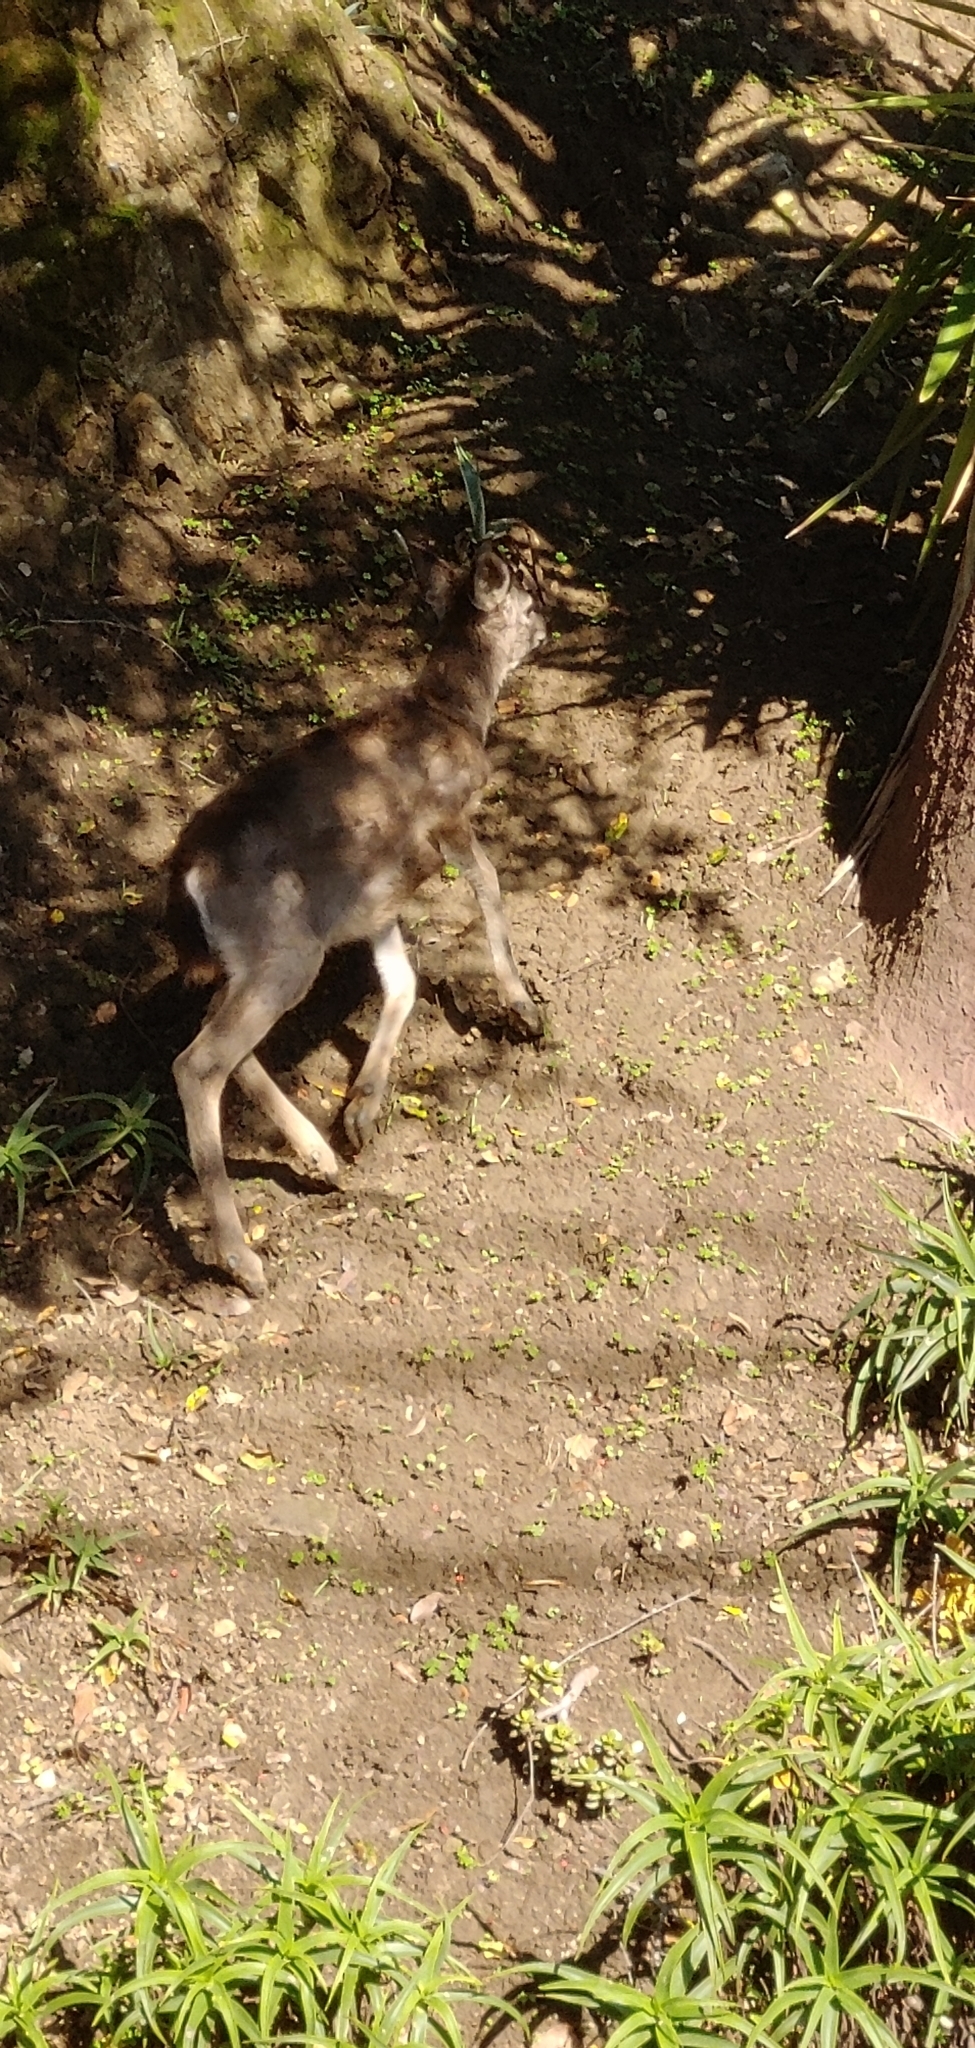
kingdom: Animalia
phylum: Chordata
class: Mammalia
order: Artiodactyla
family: Cervidae
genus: Odocoileus
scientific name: Odocoileus hemionus
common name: Mule deer
